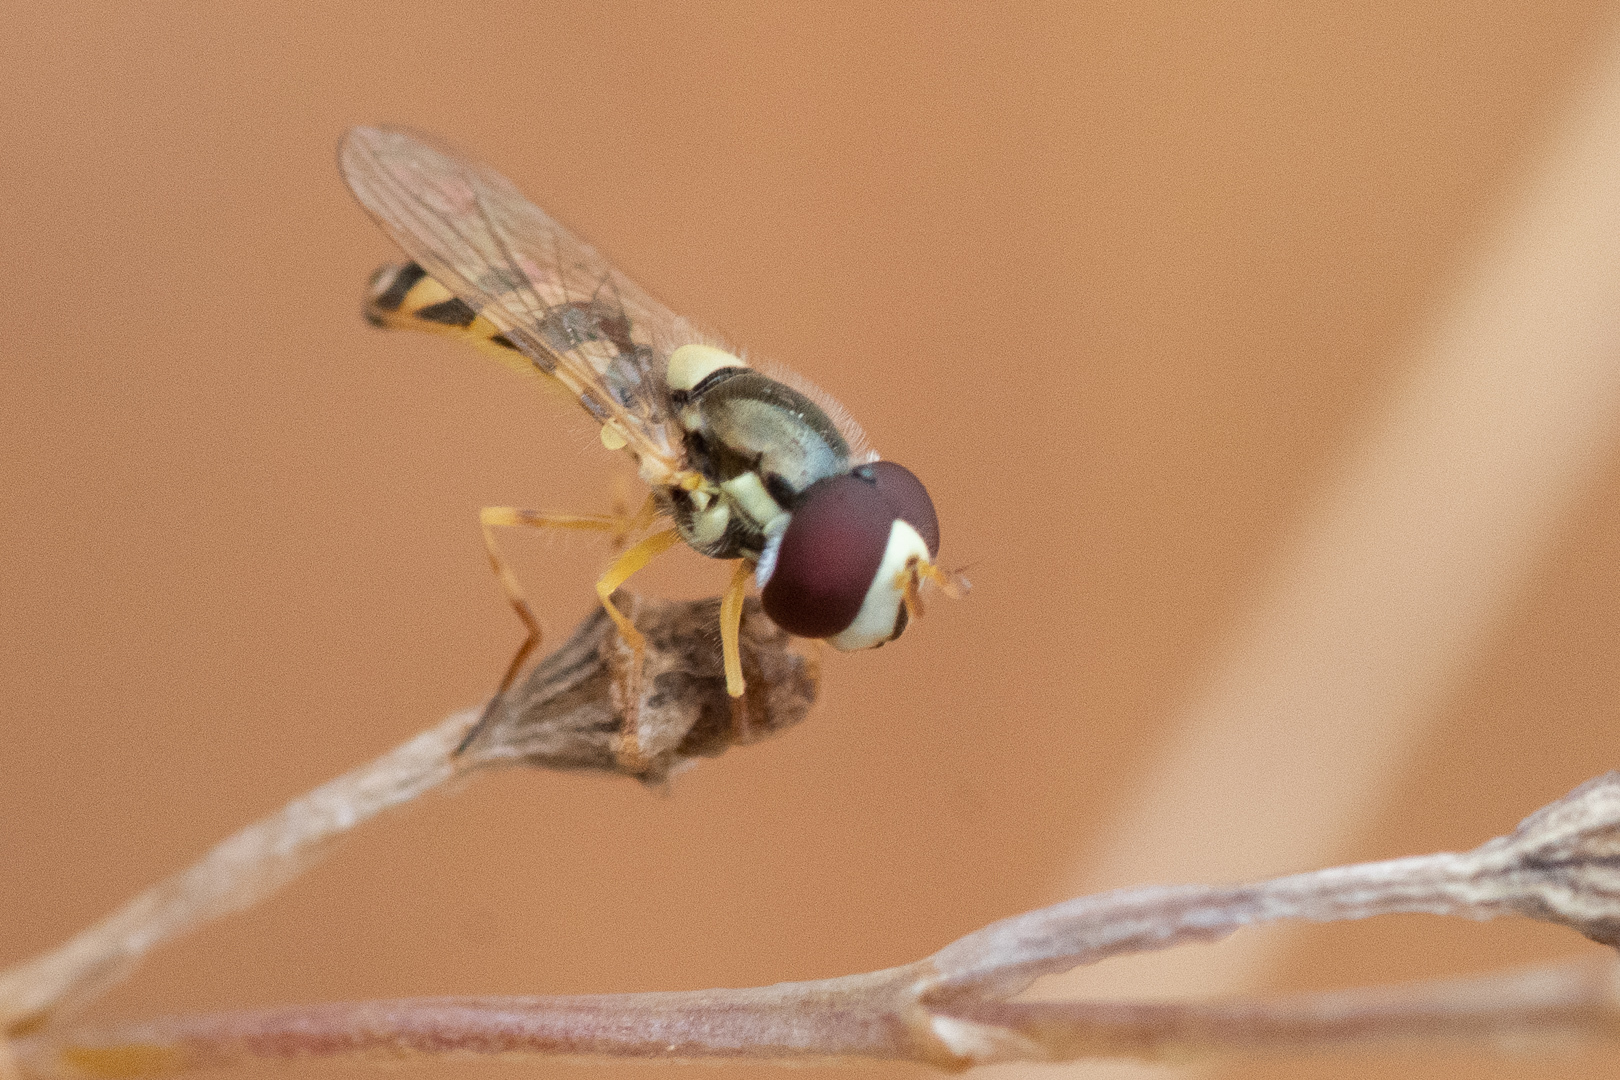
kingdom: Animalia
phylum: Arthropoda
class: Insecta
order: Diptera
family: Syrphidae
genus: Allograpta
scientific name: Allograpta pulchra
